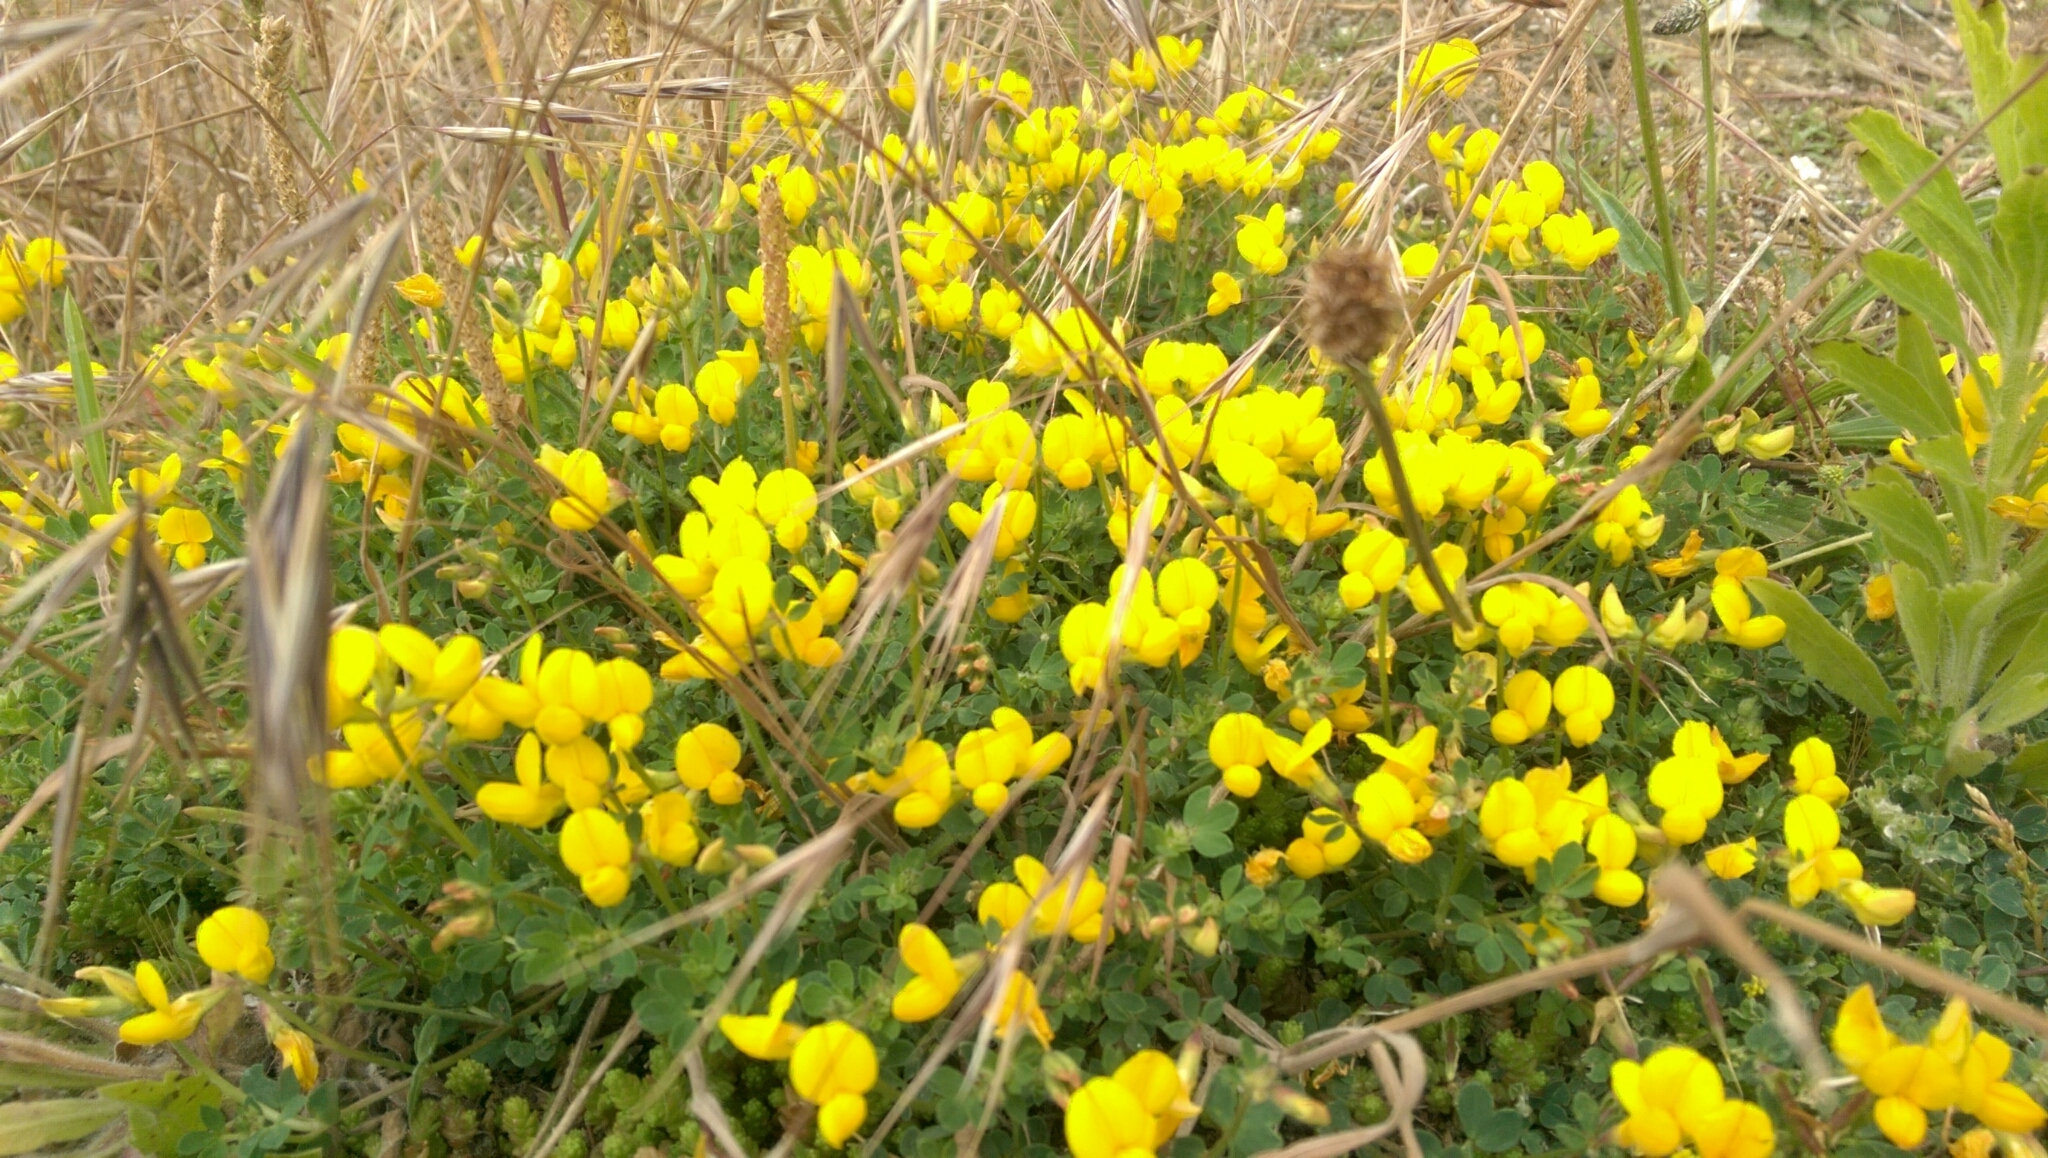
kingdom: Plantae
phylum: Tracheophyta
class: Magnoliopsida
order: Fabales
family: Fabaceae
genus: Lotus
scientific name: Lotus corniculatus
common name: Common bird's-foot-trefoil
